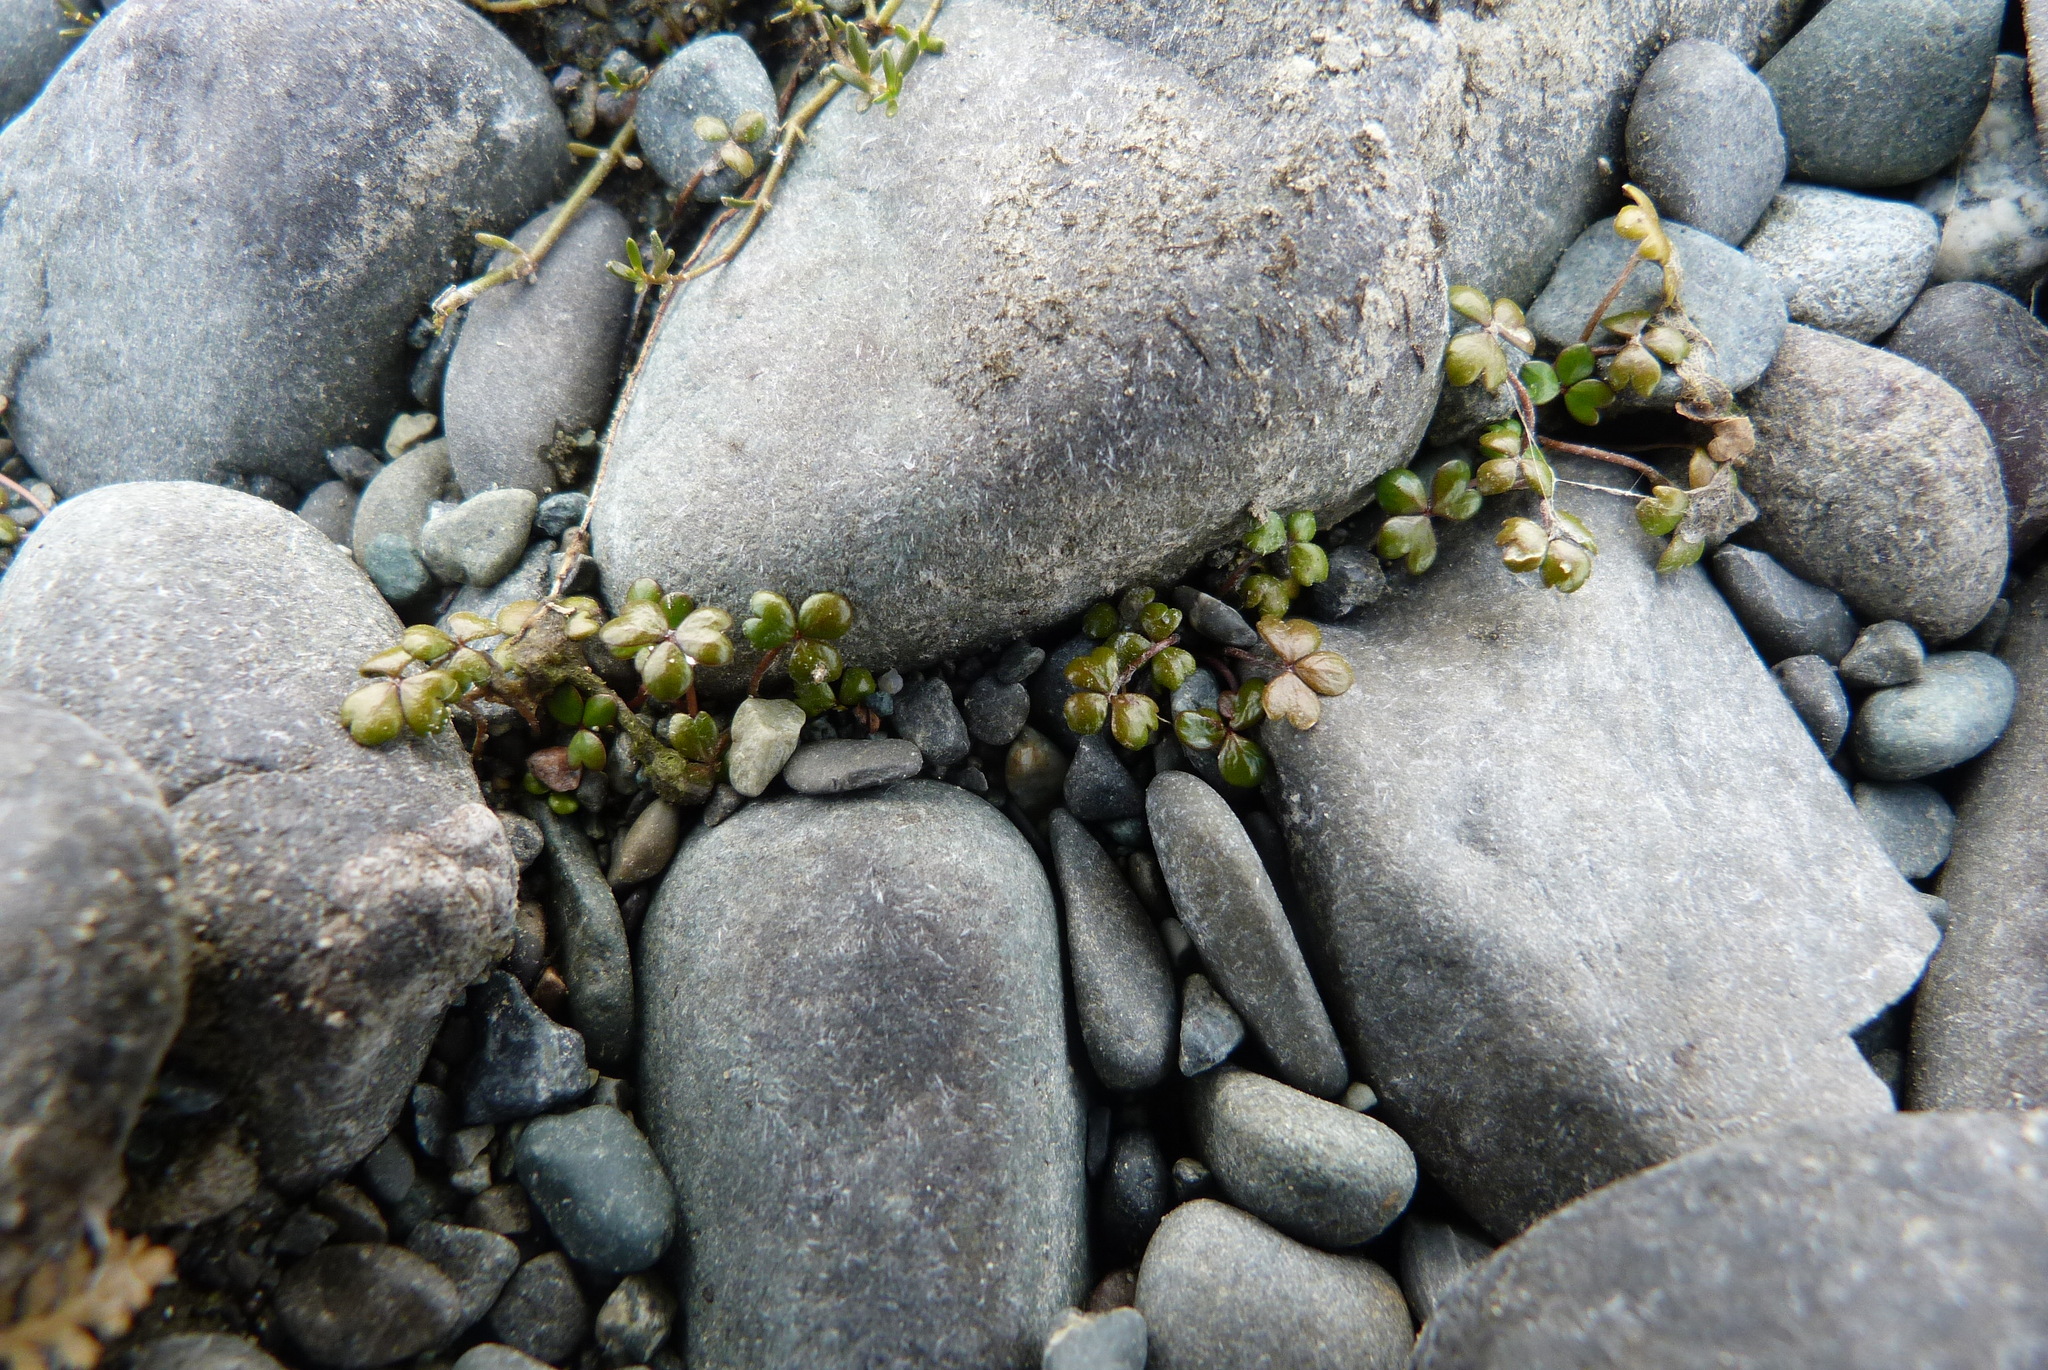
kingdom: Plantae
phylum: Tracheophyta
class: Magnoliopsida
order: Apiales
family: Araliaceae
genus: Hydrocotyle
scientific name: Hydrocotyle hydrophila
